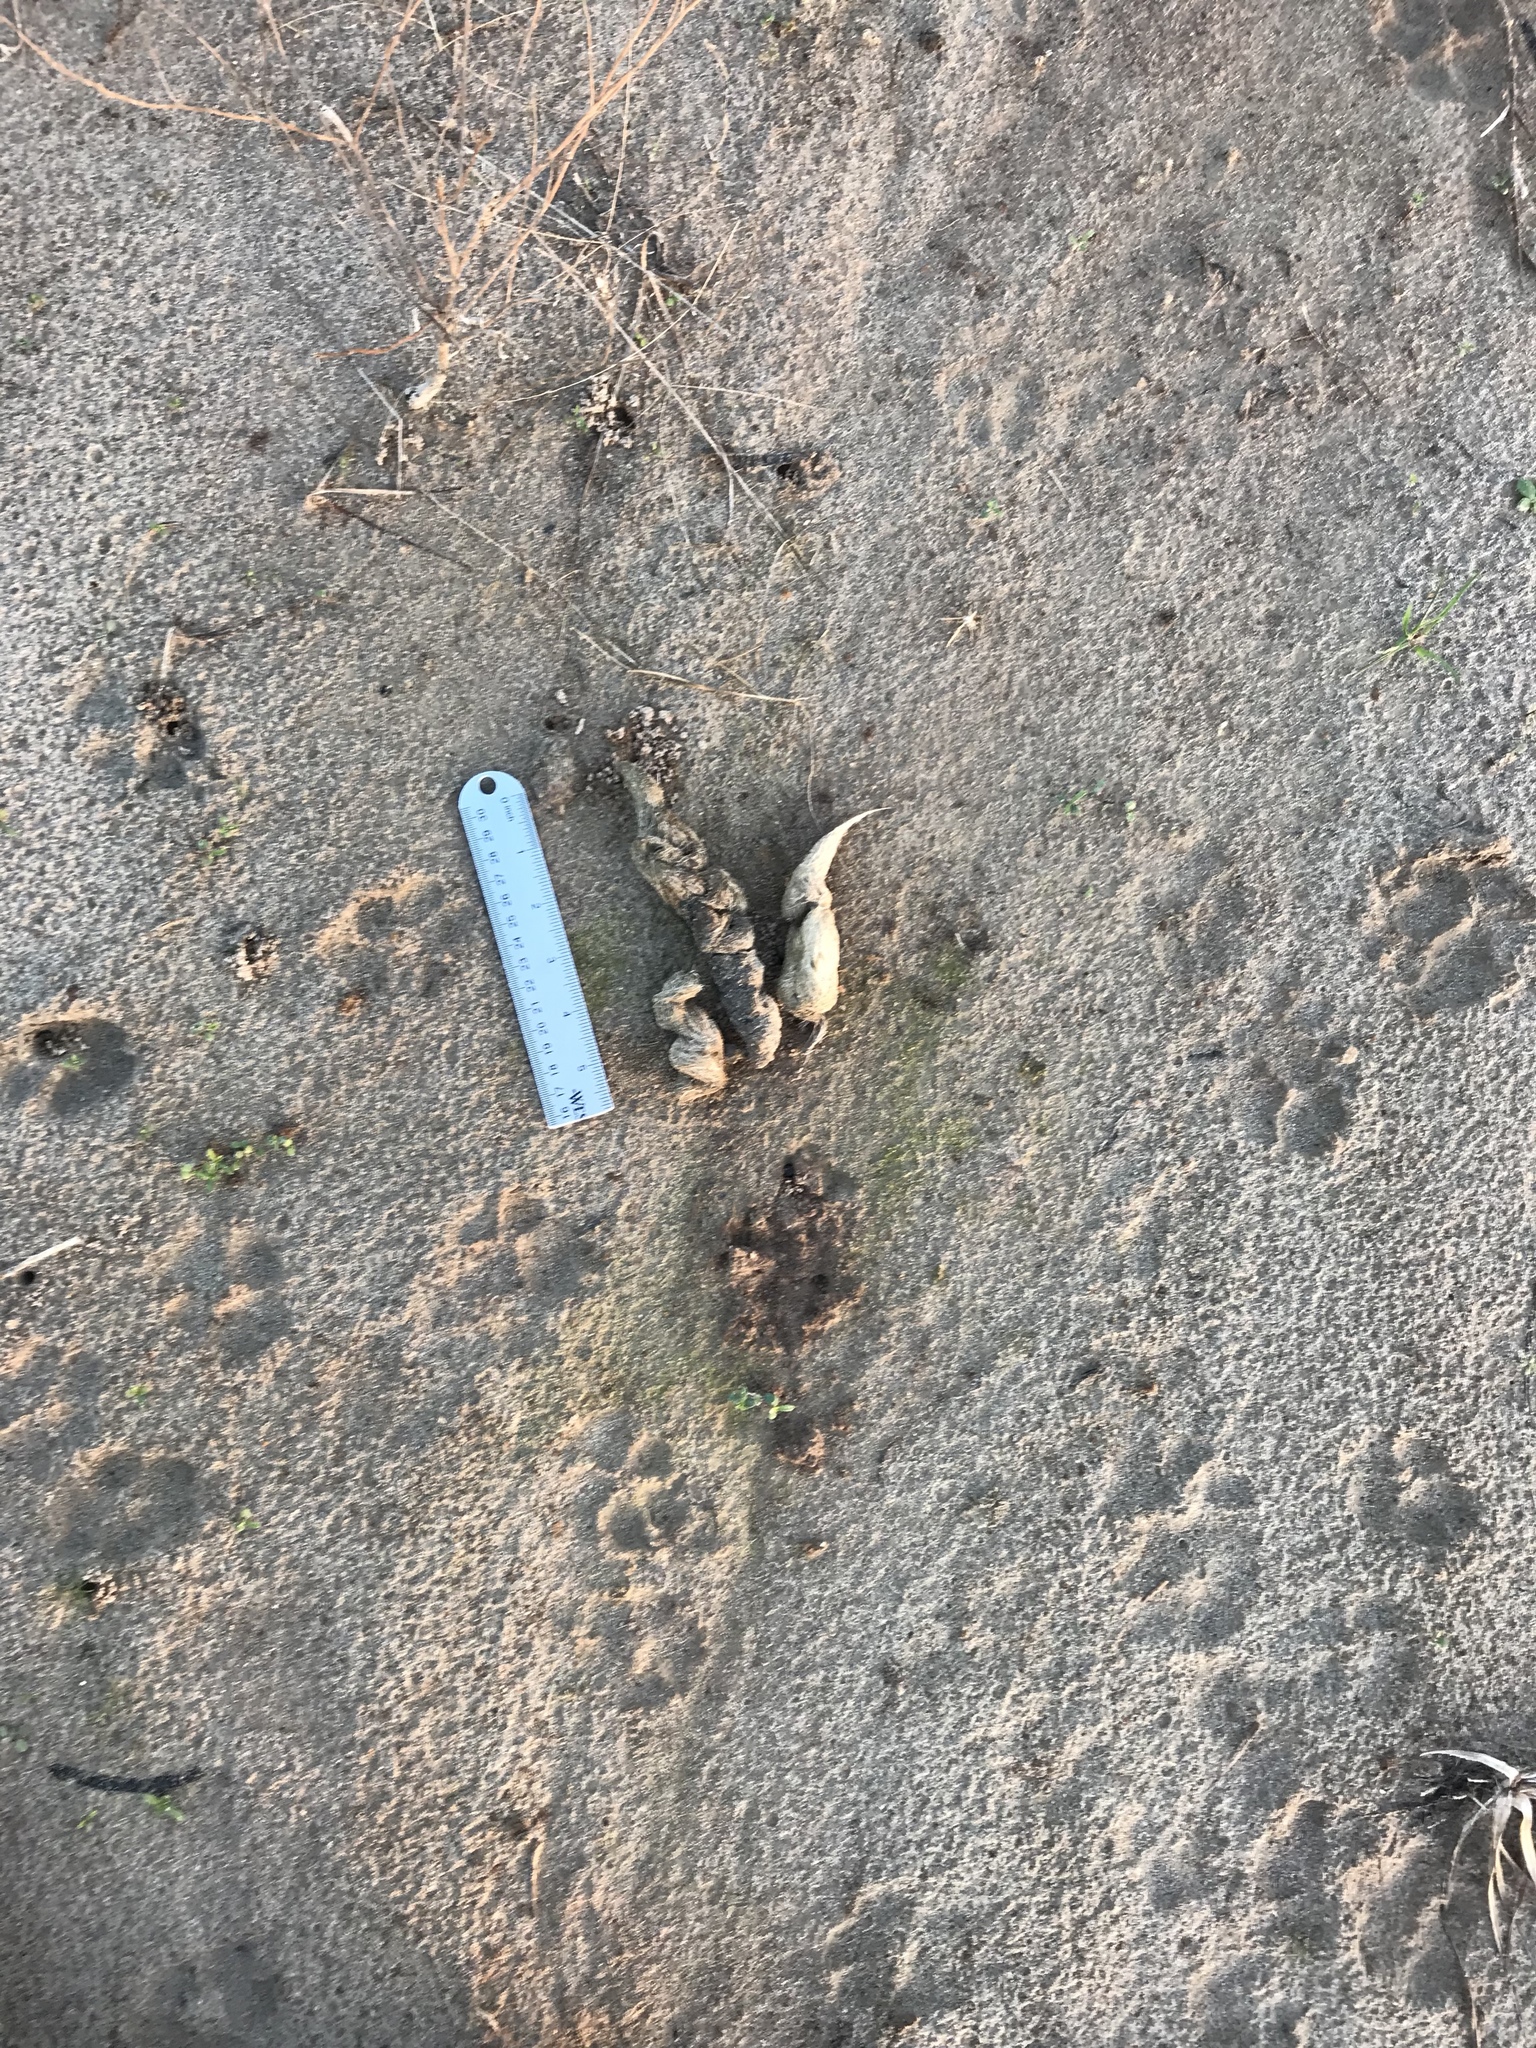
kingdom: Animalia
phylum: Chordata
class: Mammalia
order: Carnivora
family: Canidae
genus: Canis
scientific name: Canis latrans
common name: Coyote
